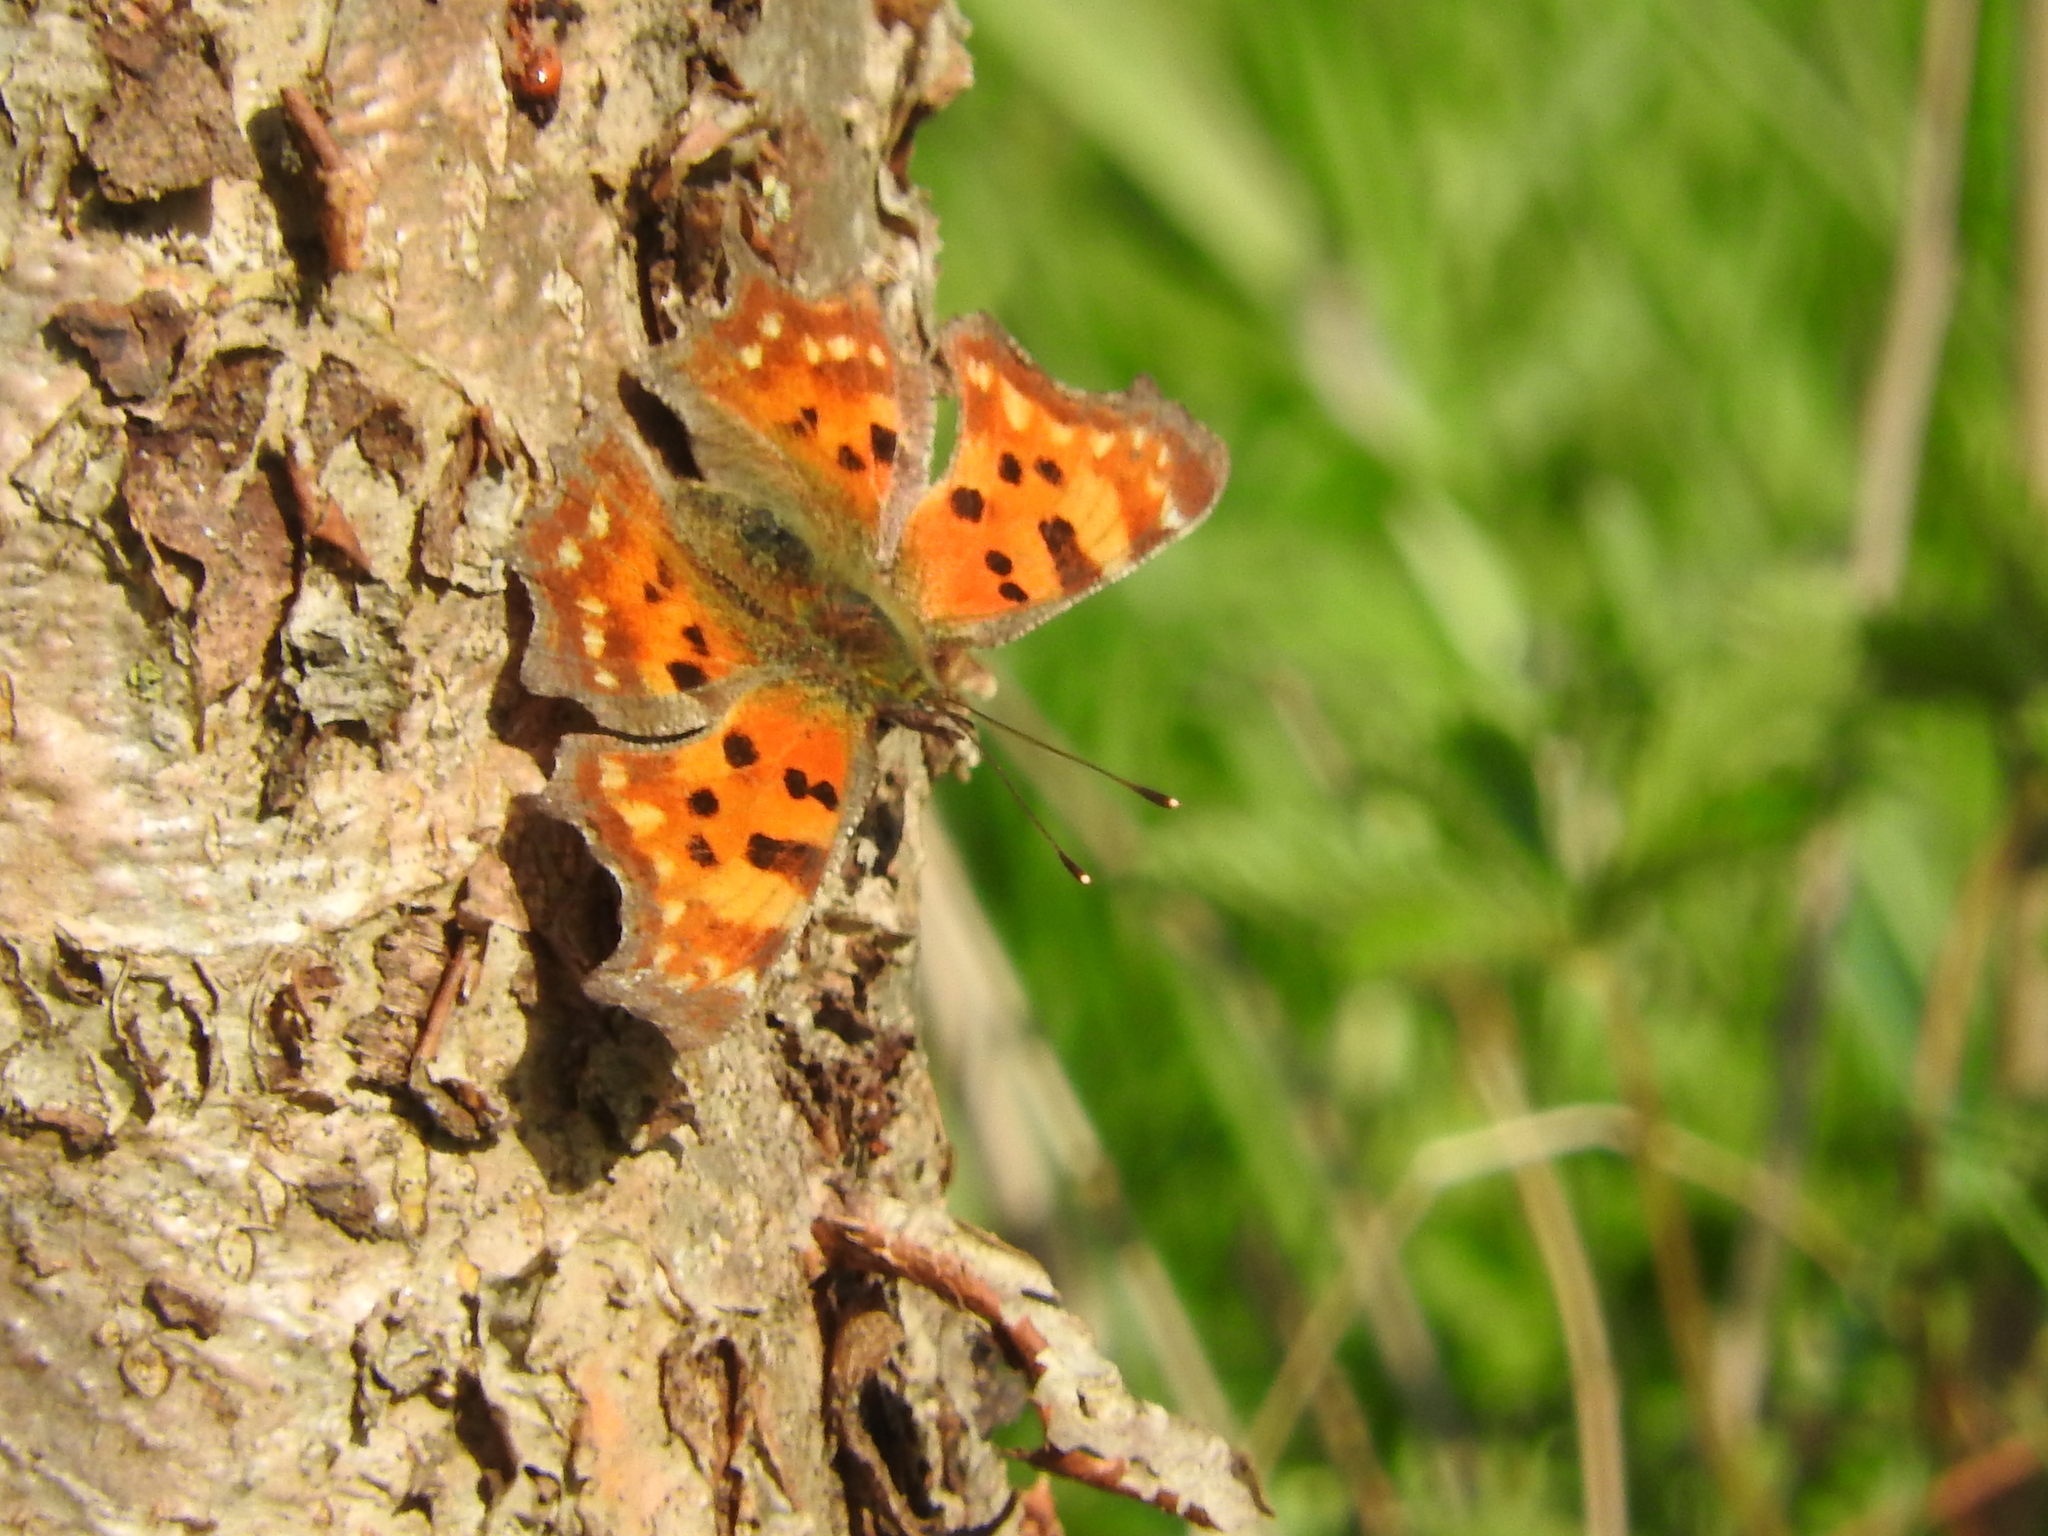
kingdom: Animalia
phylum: Arthropoda
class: Insecta
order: Lepidoptera
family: Nymphalidae
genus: Polygonia
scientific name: Polygonia c-album
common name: Comma
